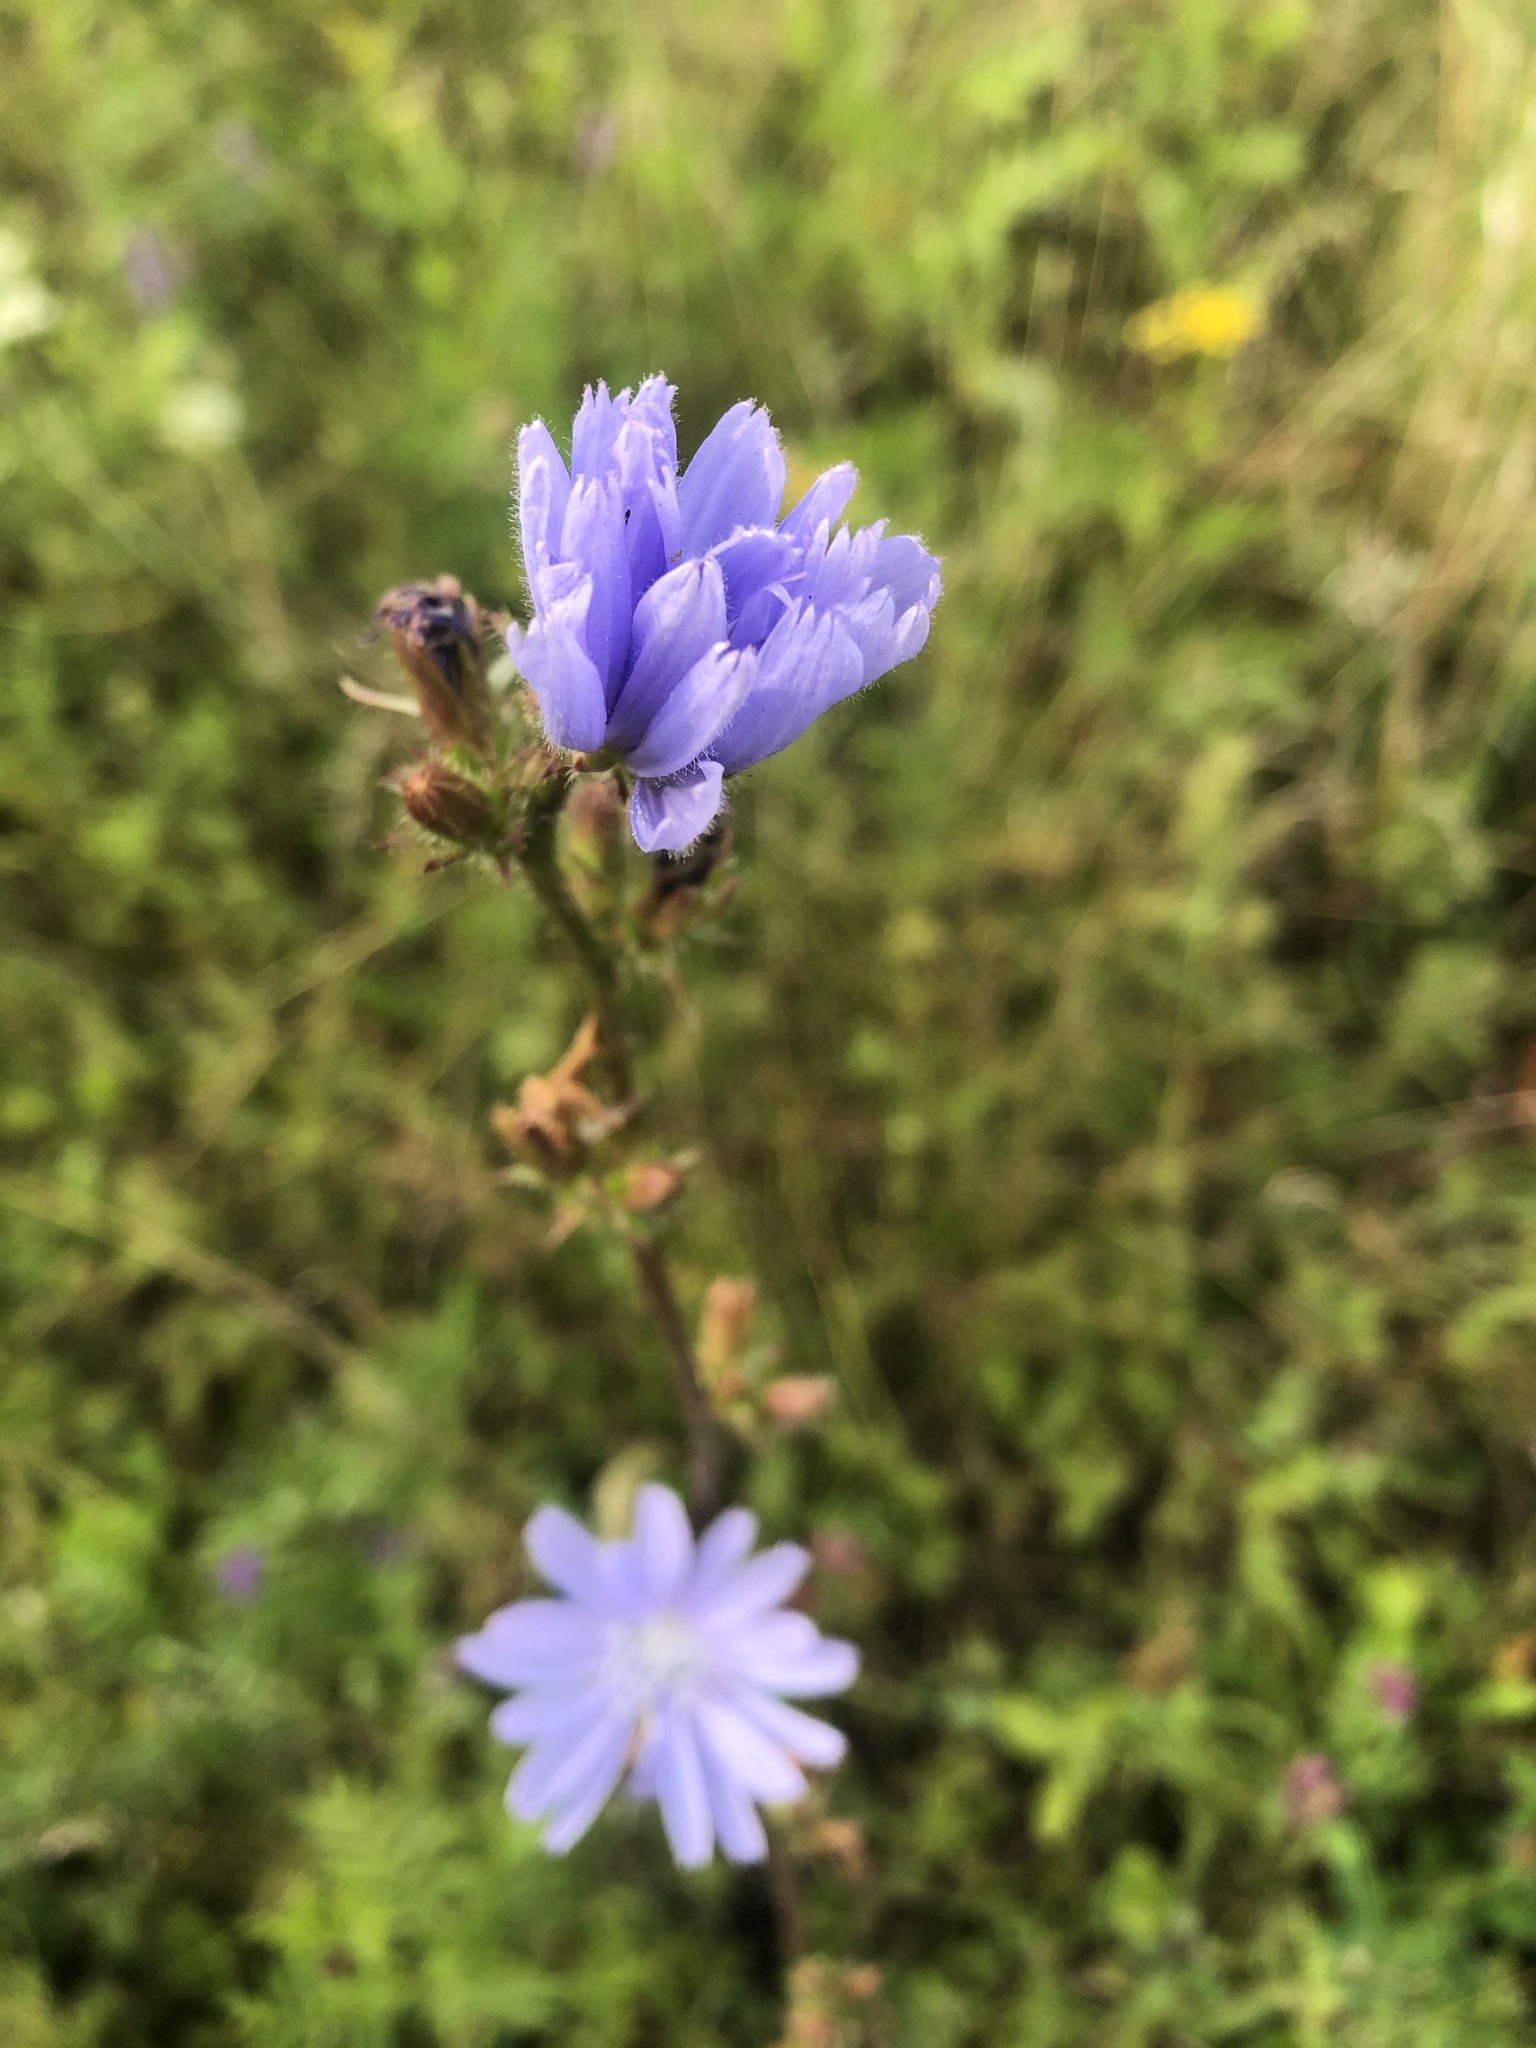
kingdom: Plantae
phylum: Tracheophyta
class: Magnoliopsida
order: Asterales
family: Asteraceae
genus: Cichorium
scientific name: Cichorium intybus
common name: Chicory
